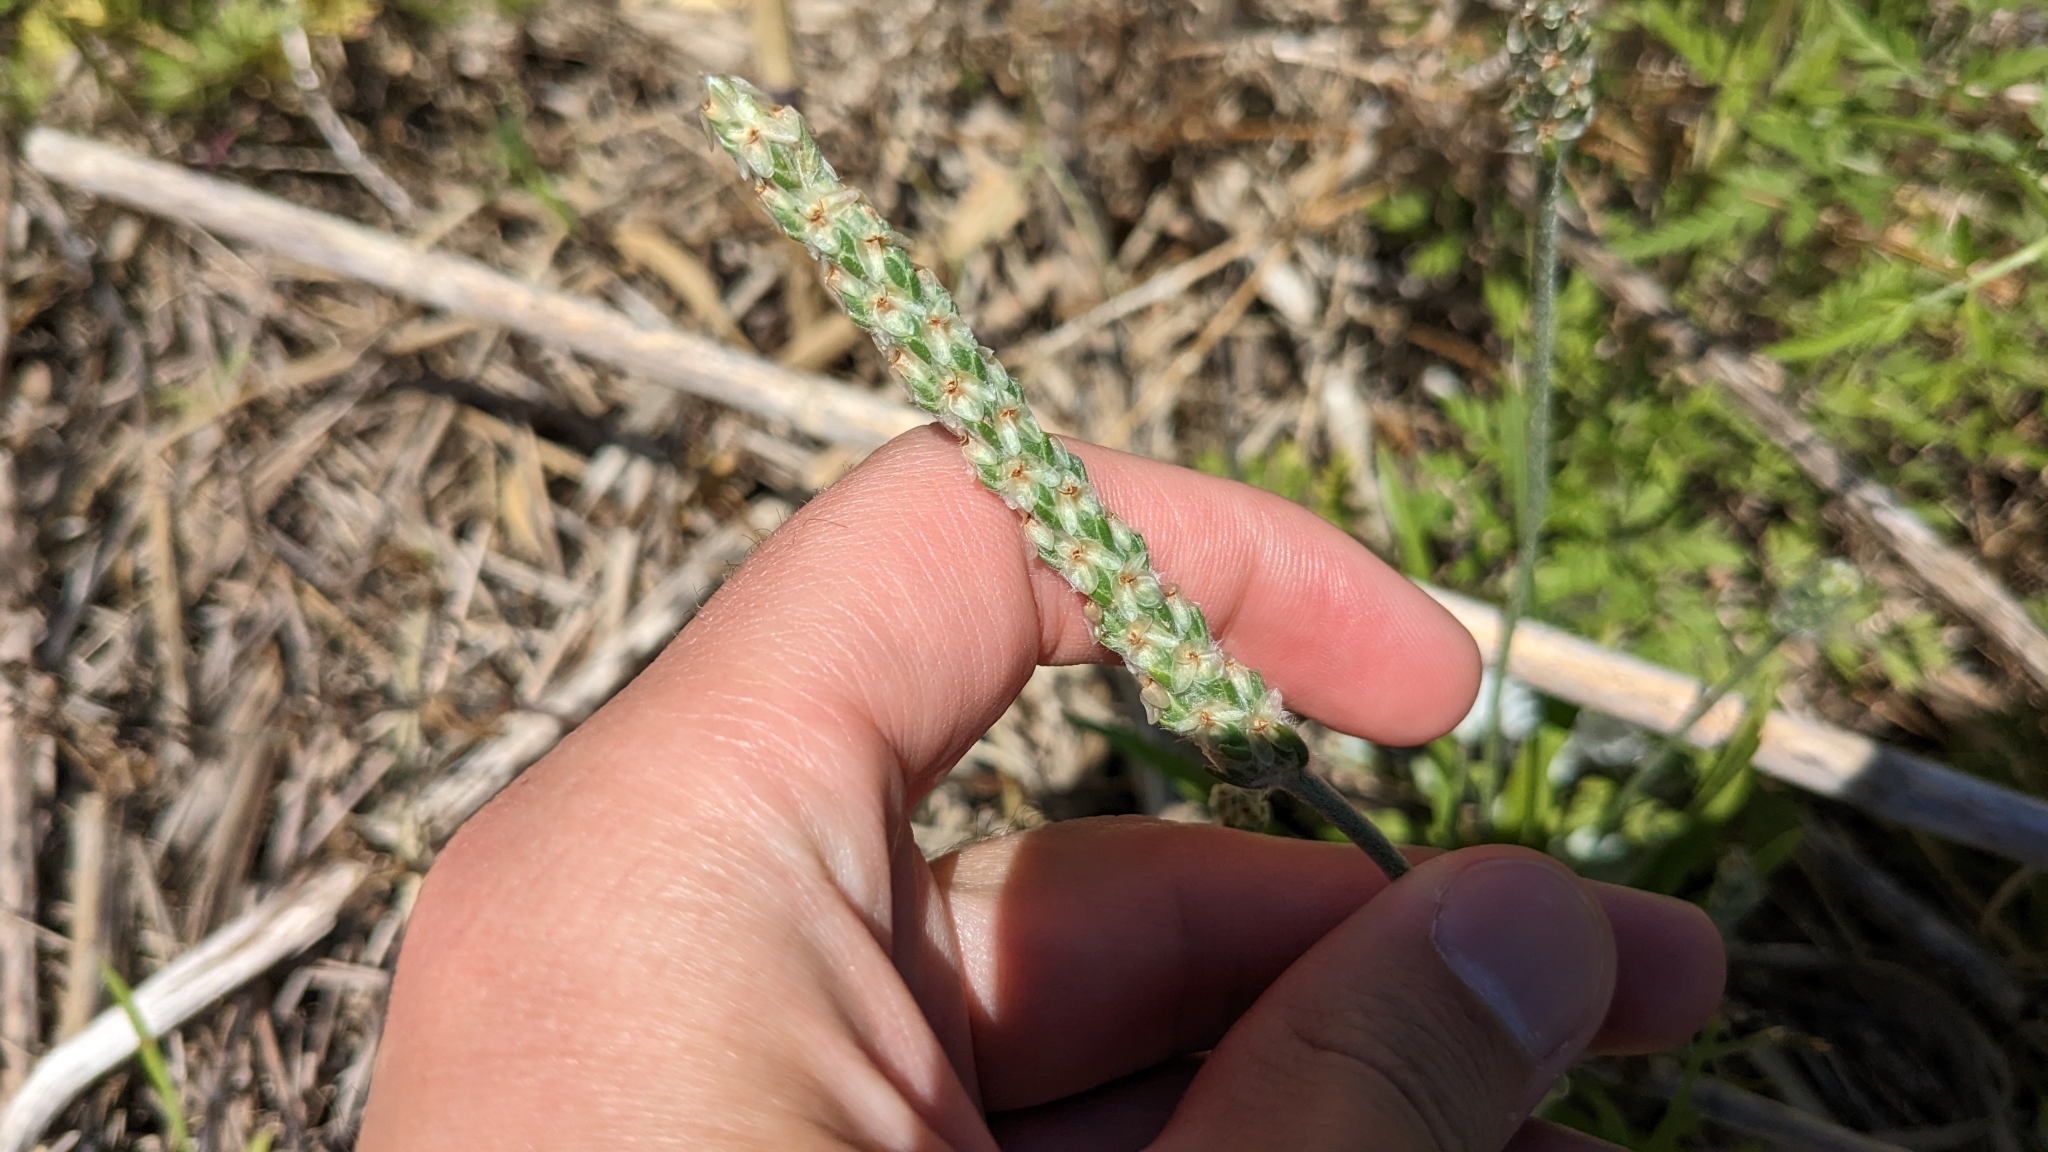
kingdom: Plantae
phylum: Tracheophyta
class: Magnoliopsida
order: Lamiales
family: Plantaginaceae
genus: Plantago
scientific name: Plantago wrightiana
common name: Wright's plantain
